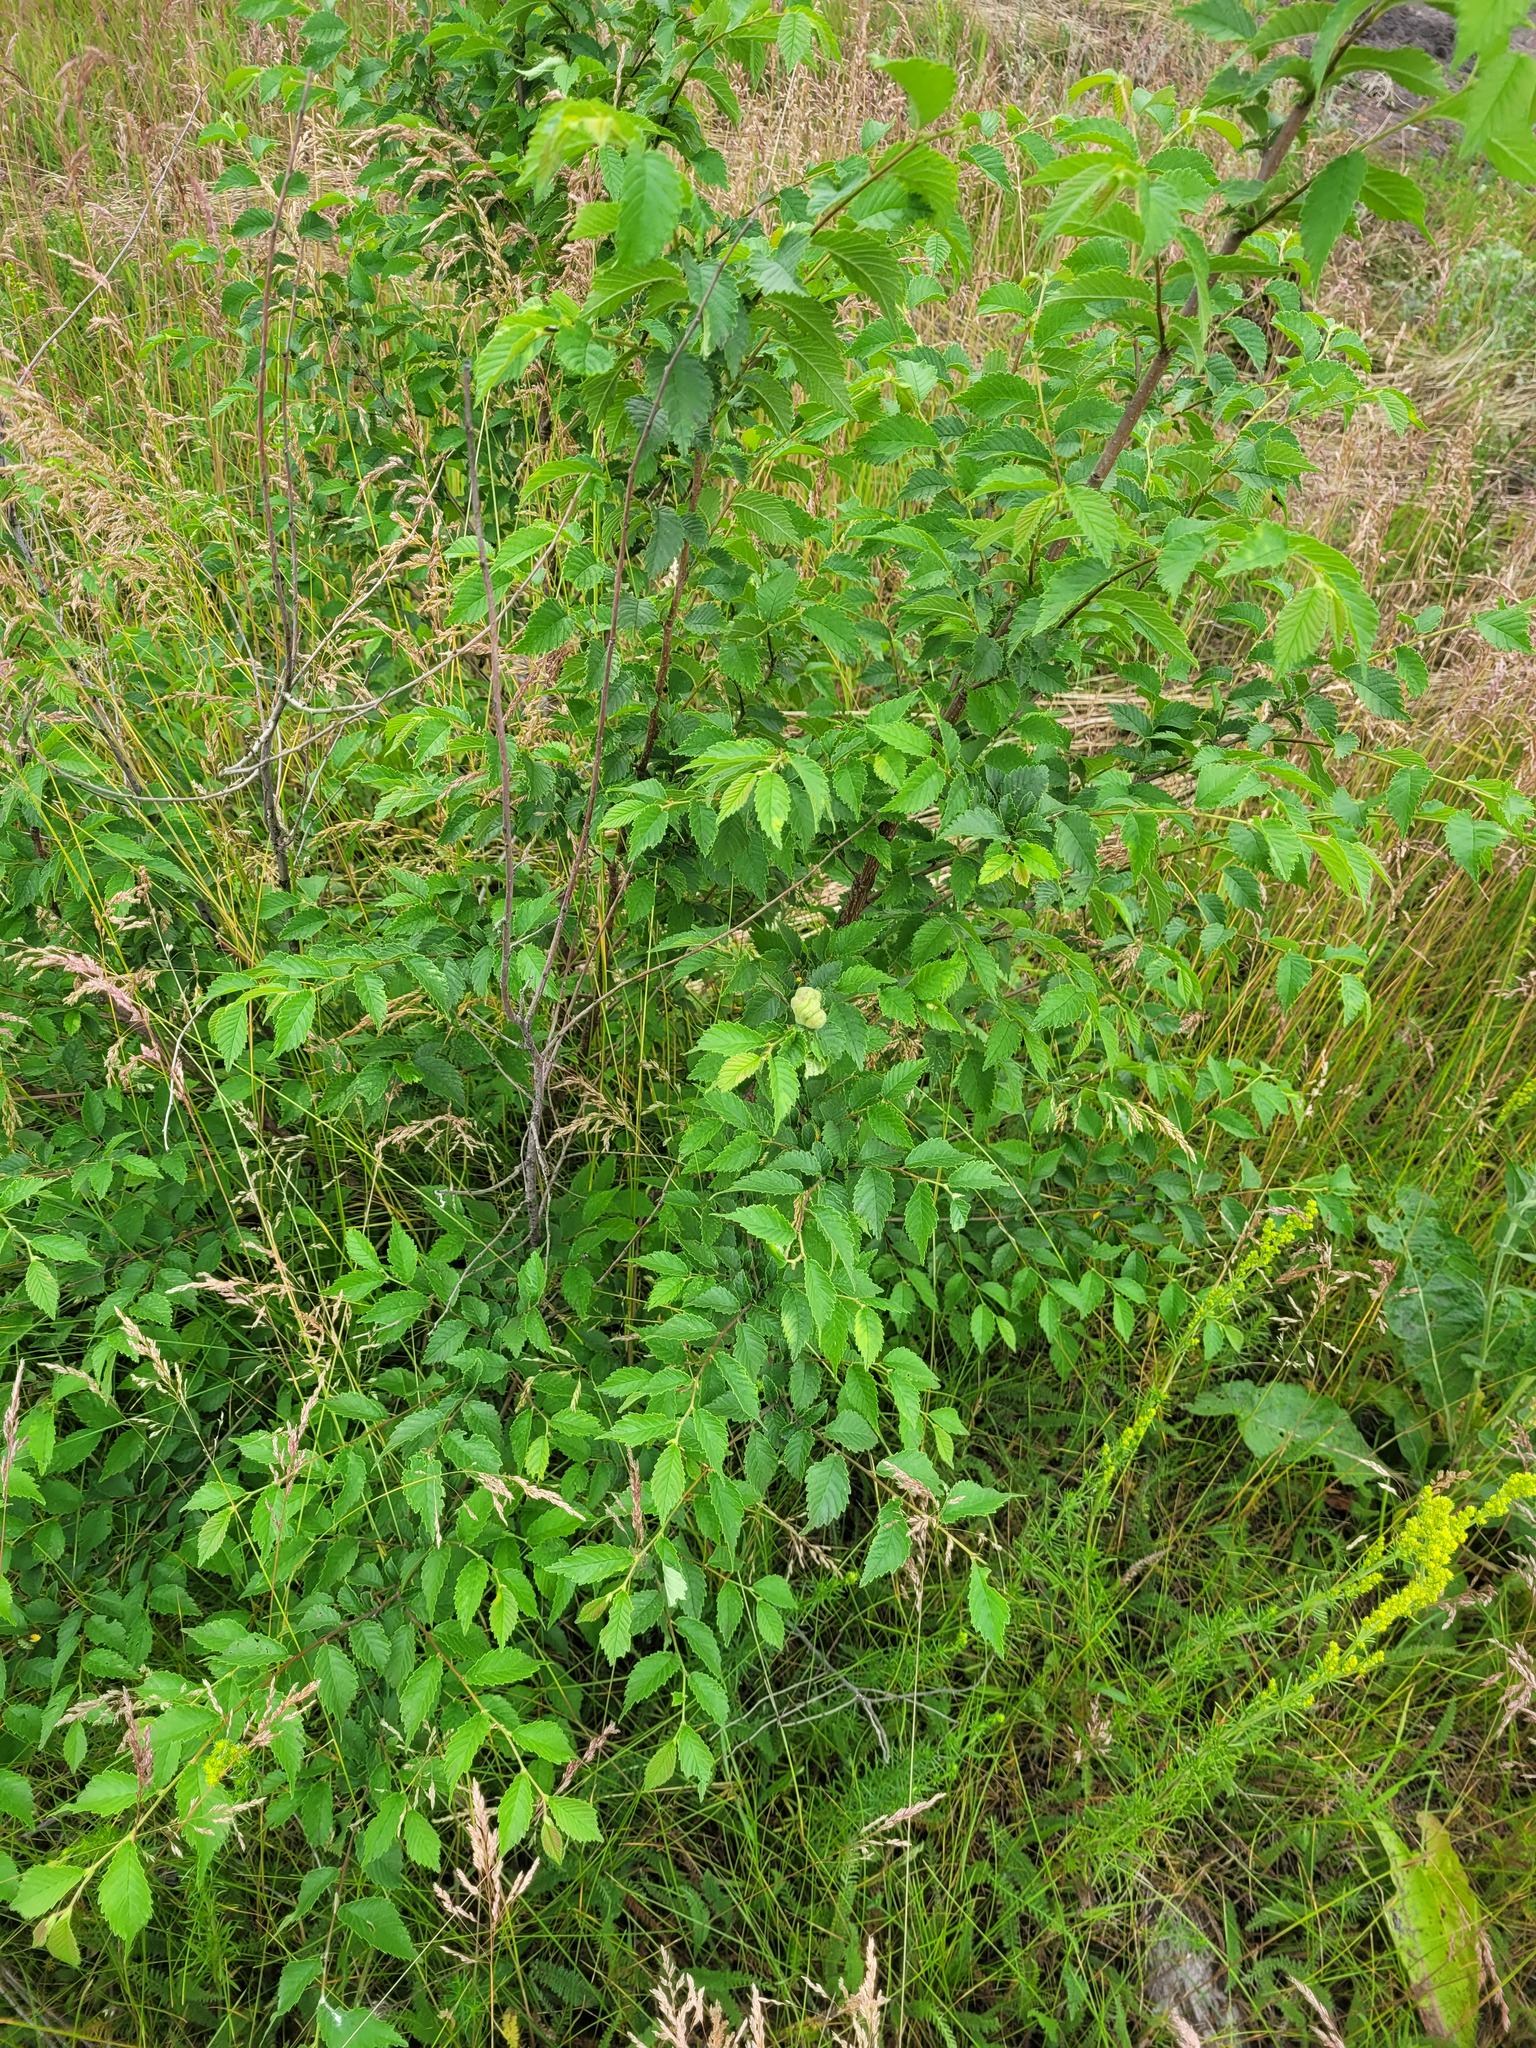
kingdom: Plantae
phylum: Tracheophyta
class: Magnoliopsida
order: Rosales
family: Ulmaceae
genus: Ulmus
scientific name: Ulmus pumila
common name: Siberian elm
